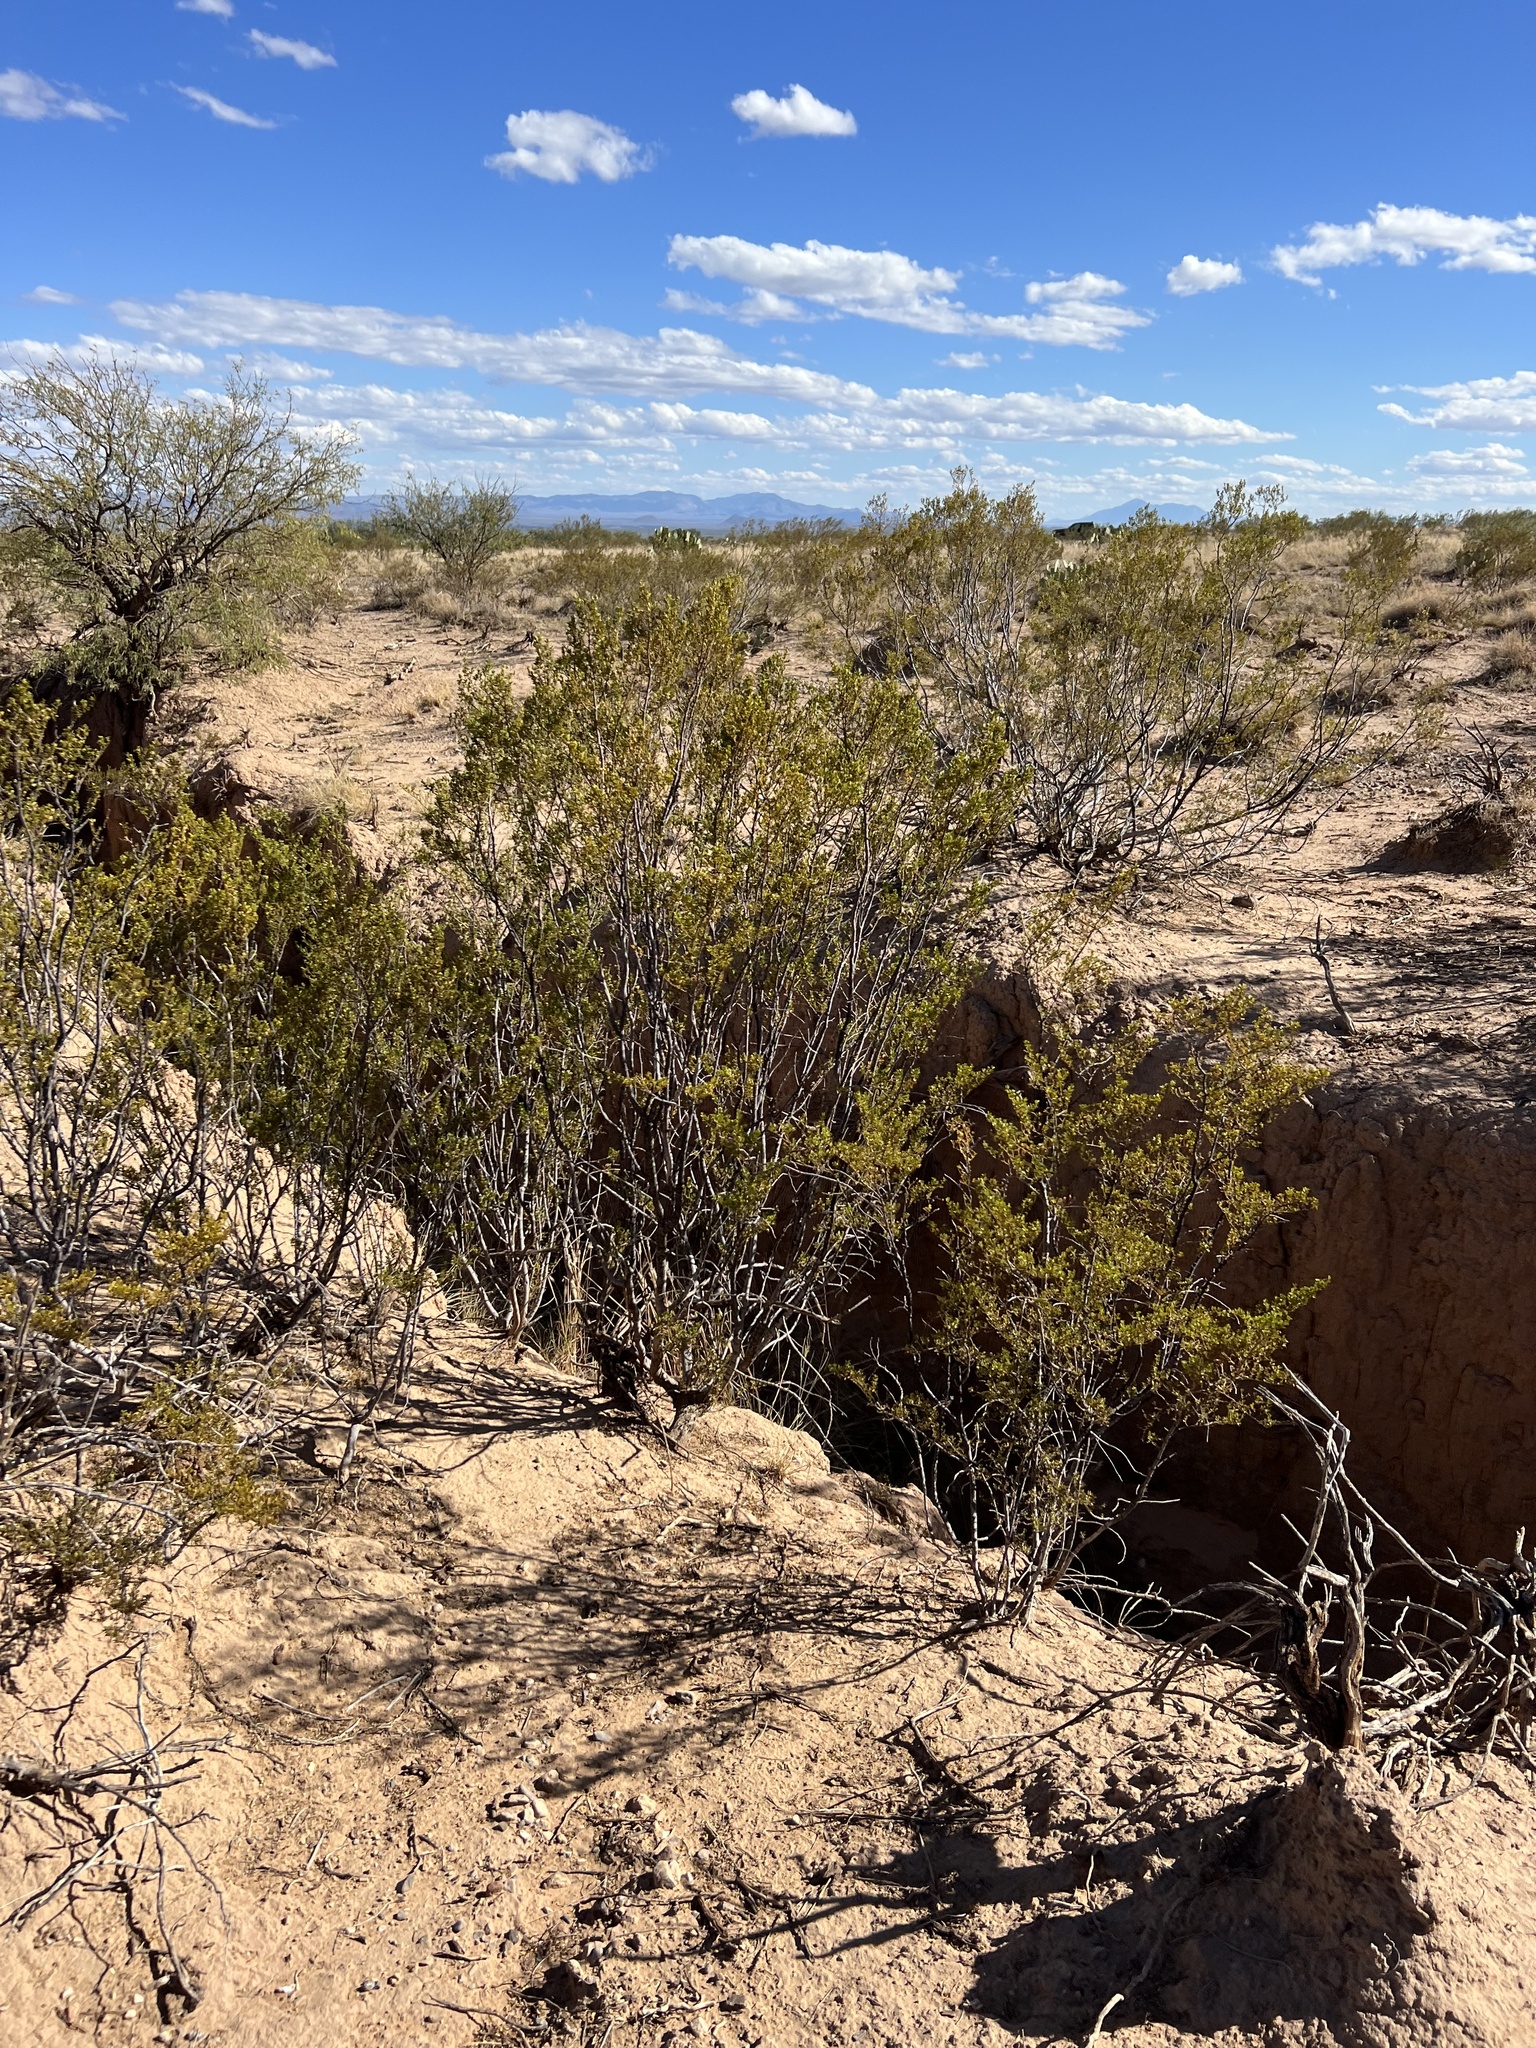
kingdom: Plantae
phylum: Tracheophyta
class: Magnoliopsida
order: Zygophyllales
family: Zygophyllaceae
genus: Larrea
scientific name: Larrea tridentata
